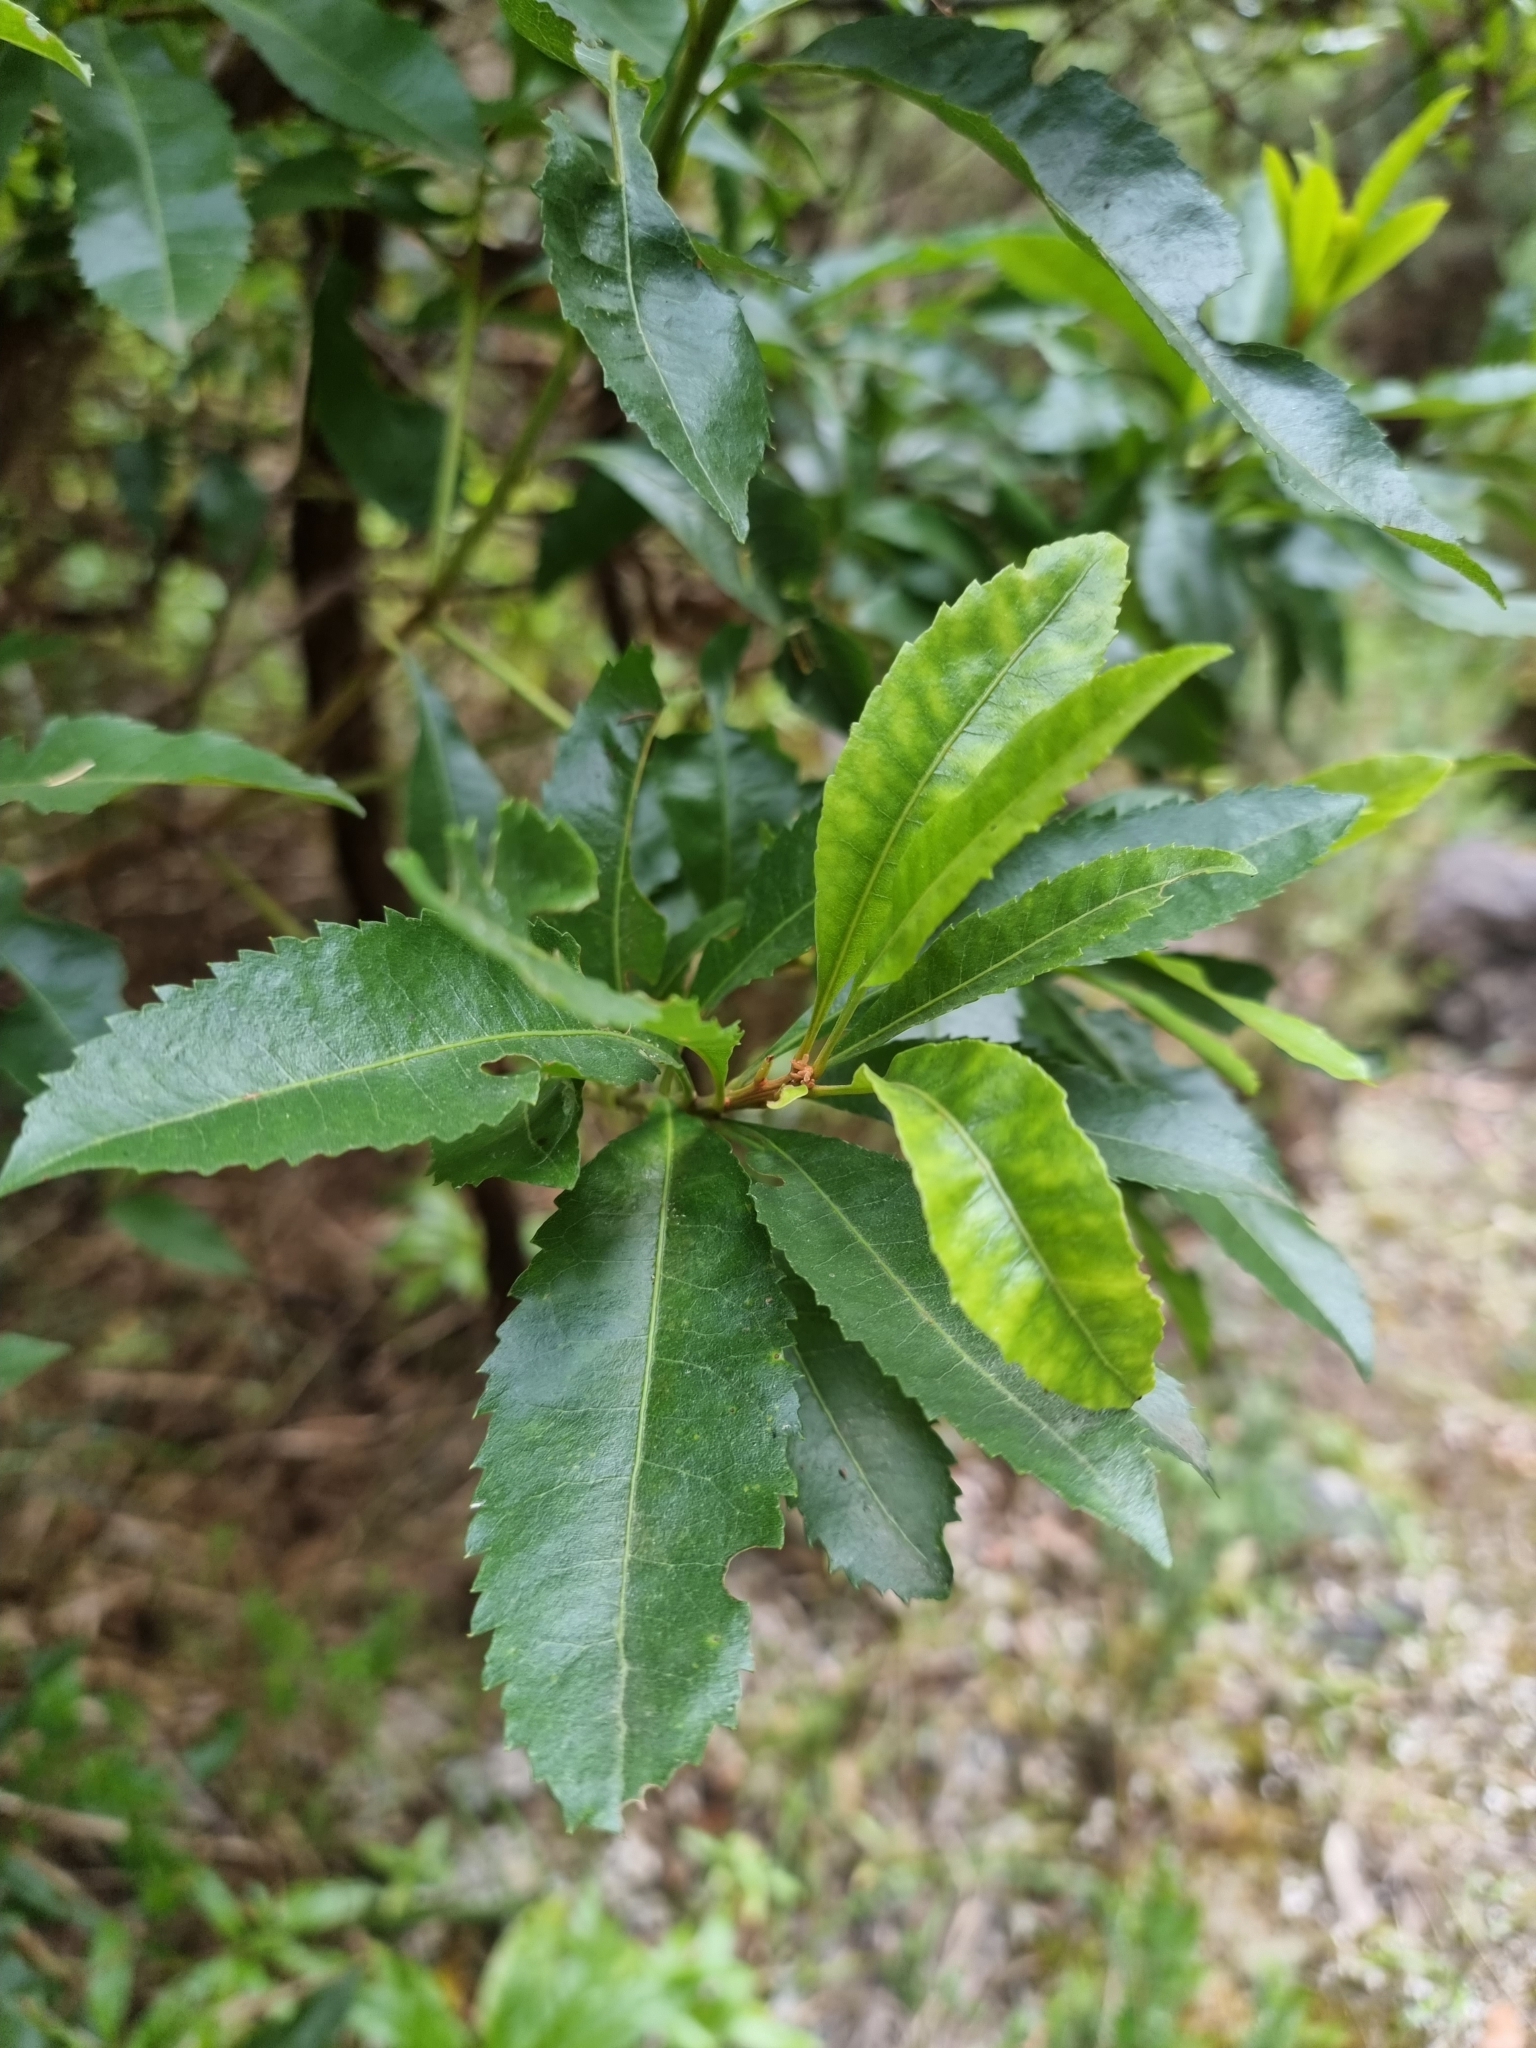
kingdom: Plantae
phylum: Tracheophyta
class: Magnoliopsida
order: Fagales
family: Myricaceae
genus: Morella
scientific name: Morella faya
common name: Firetree
